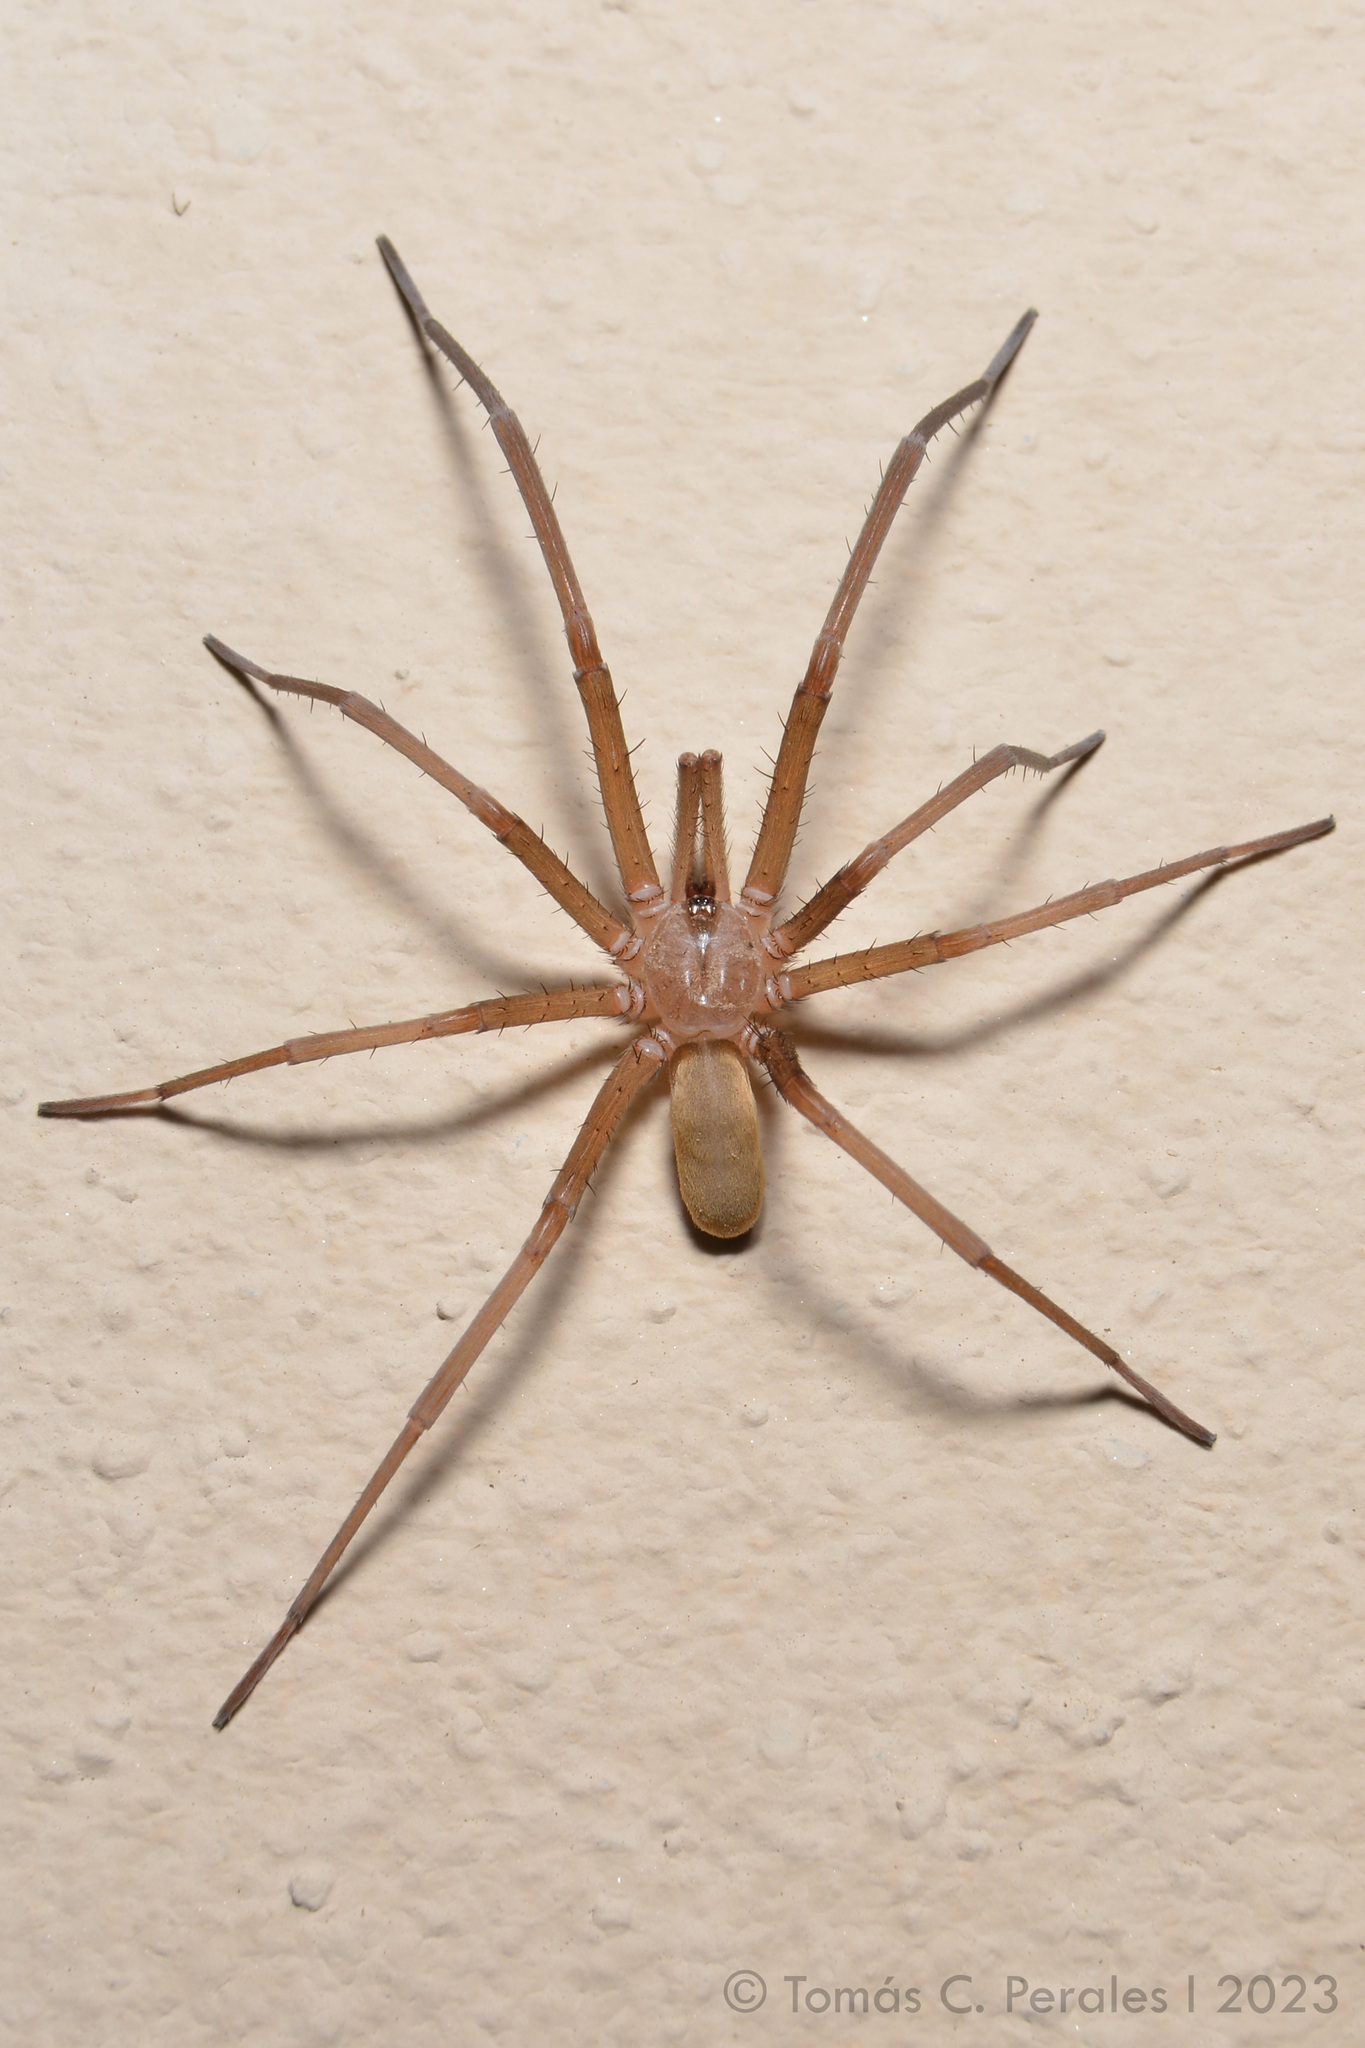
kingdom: Animalia
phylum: Arthropoda
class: Arachnida
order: Araneae
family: Filistatidae
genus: Kukulcania
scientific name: Kukulcania hibernalis
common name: Crevice weaver
